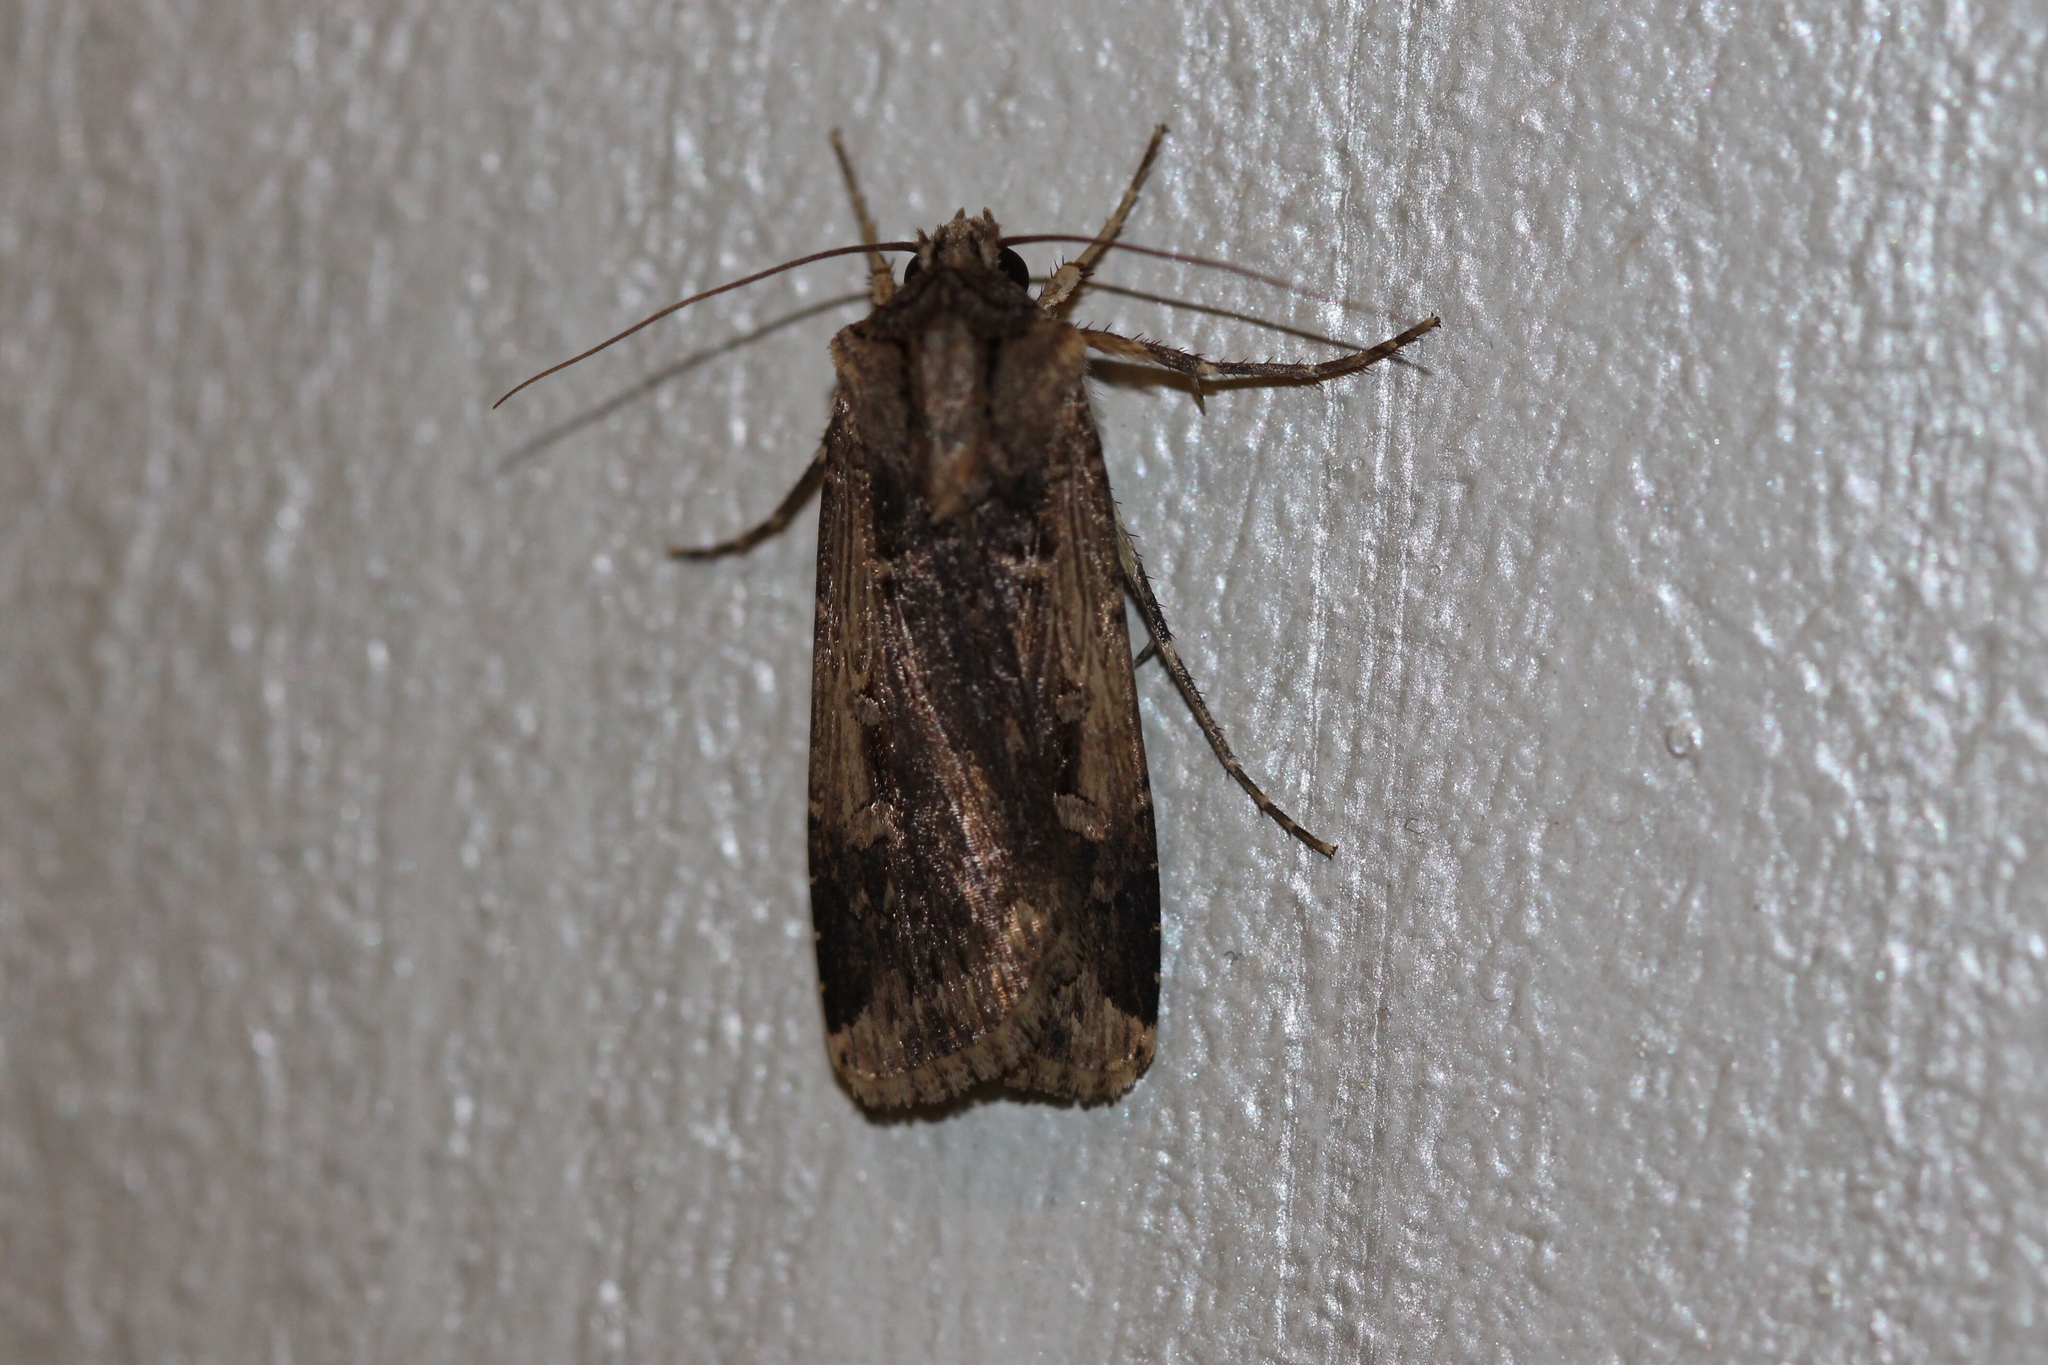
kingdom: Animalia
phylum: Arthropoda
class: Insecta
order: Lepidoptera
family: Noctuidae
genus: Feltia
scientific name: Feltia subterranea
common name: Granulate cutworm
